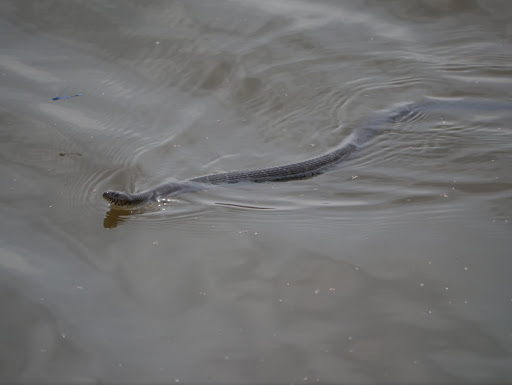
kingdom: Animalia
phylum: Chordata
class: Squamata
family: Colubridae
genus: Nerodia
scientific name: Nerodia sipedon
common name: Northern water snake
